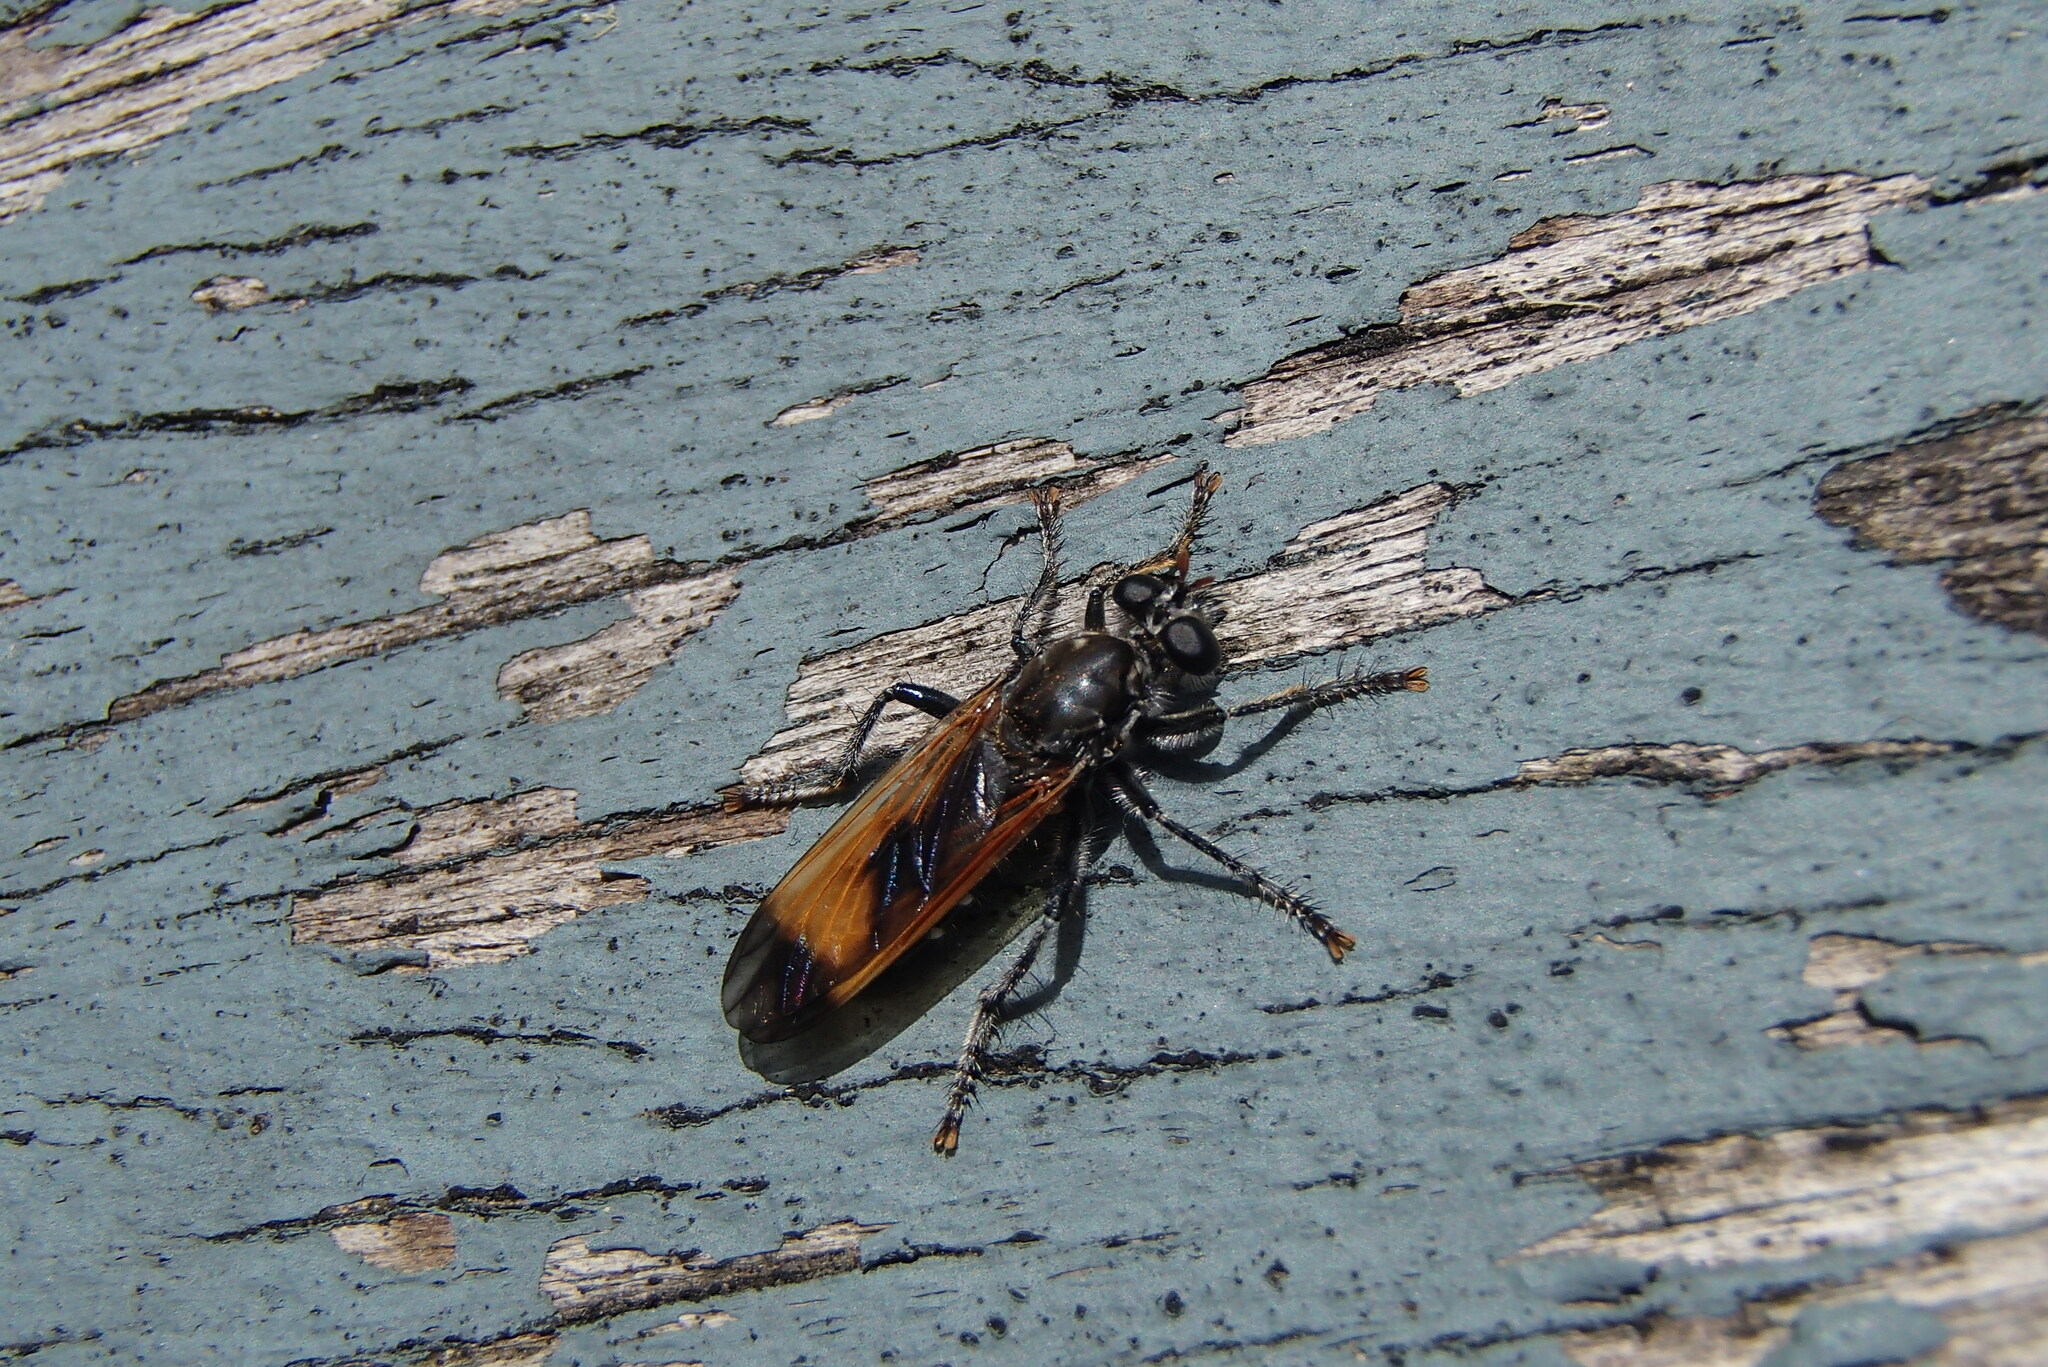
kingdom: Animalia
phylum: Arthropoda
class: Insecta
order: Diptera
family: Asilidae
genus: Orthogonis
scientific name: Orthogonis ornatipennis
